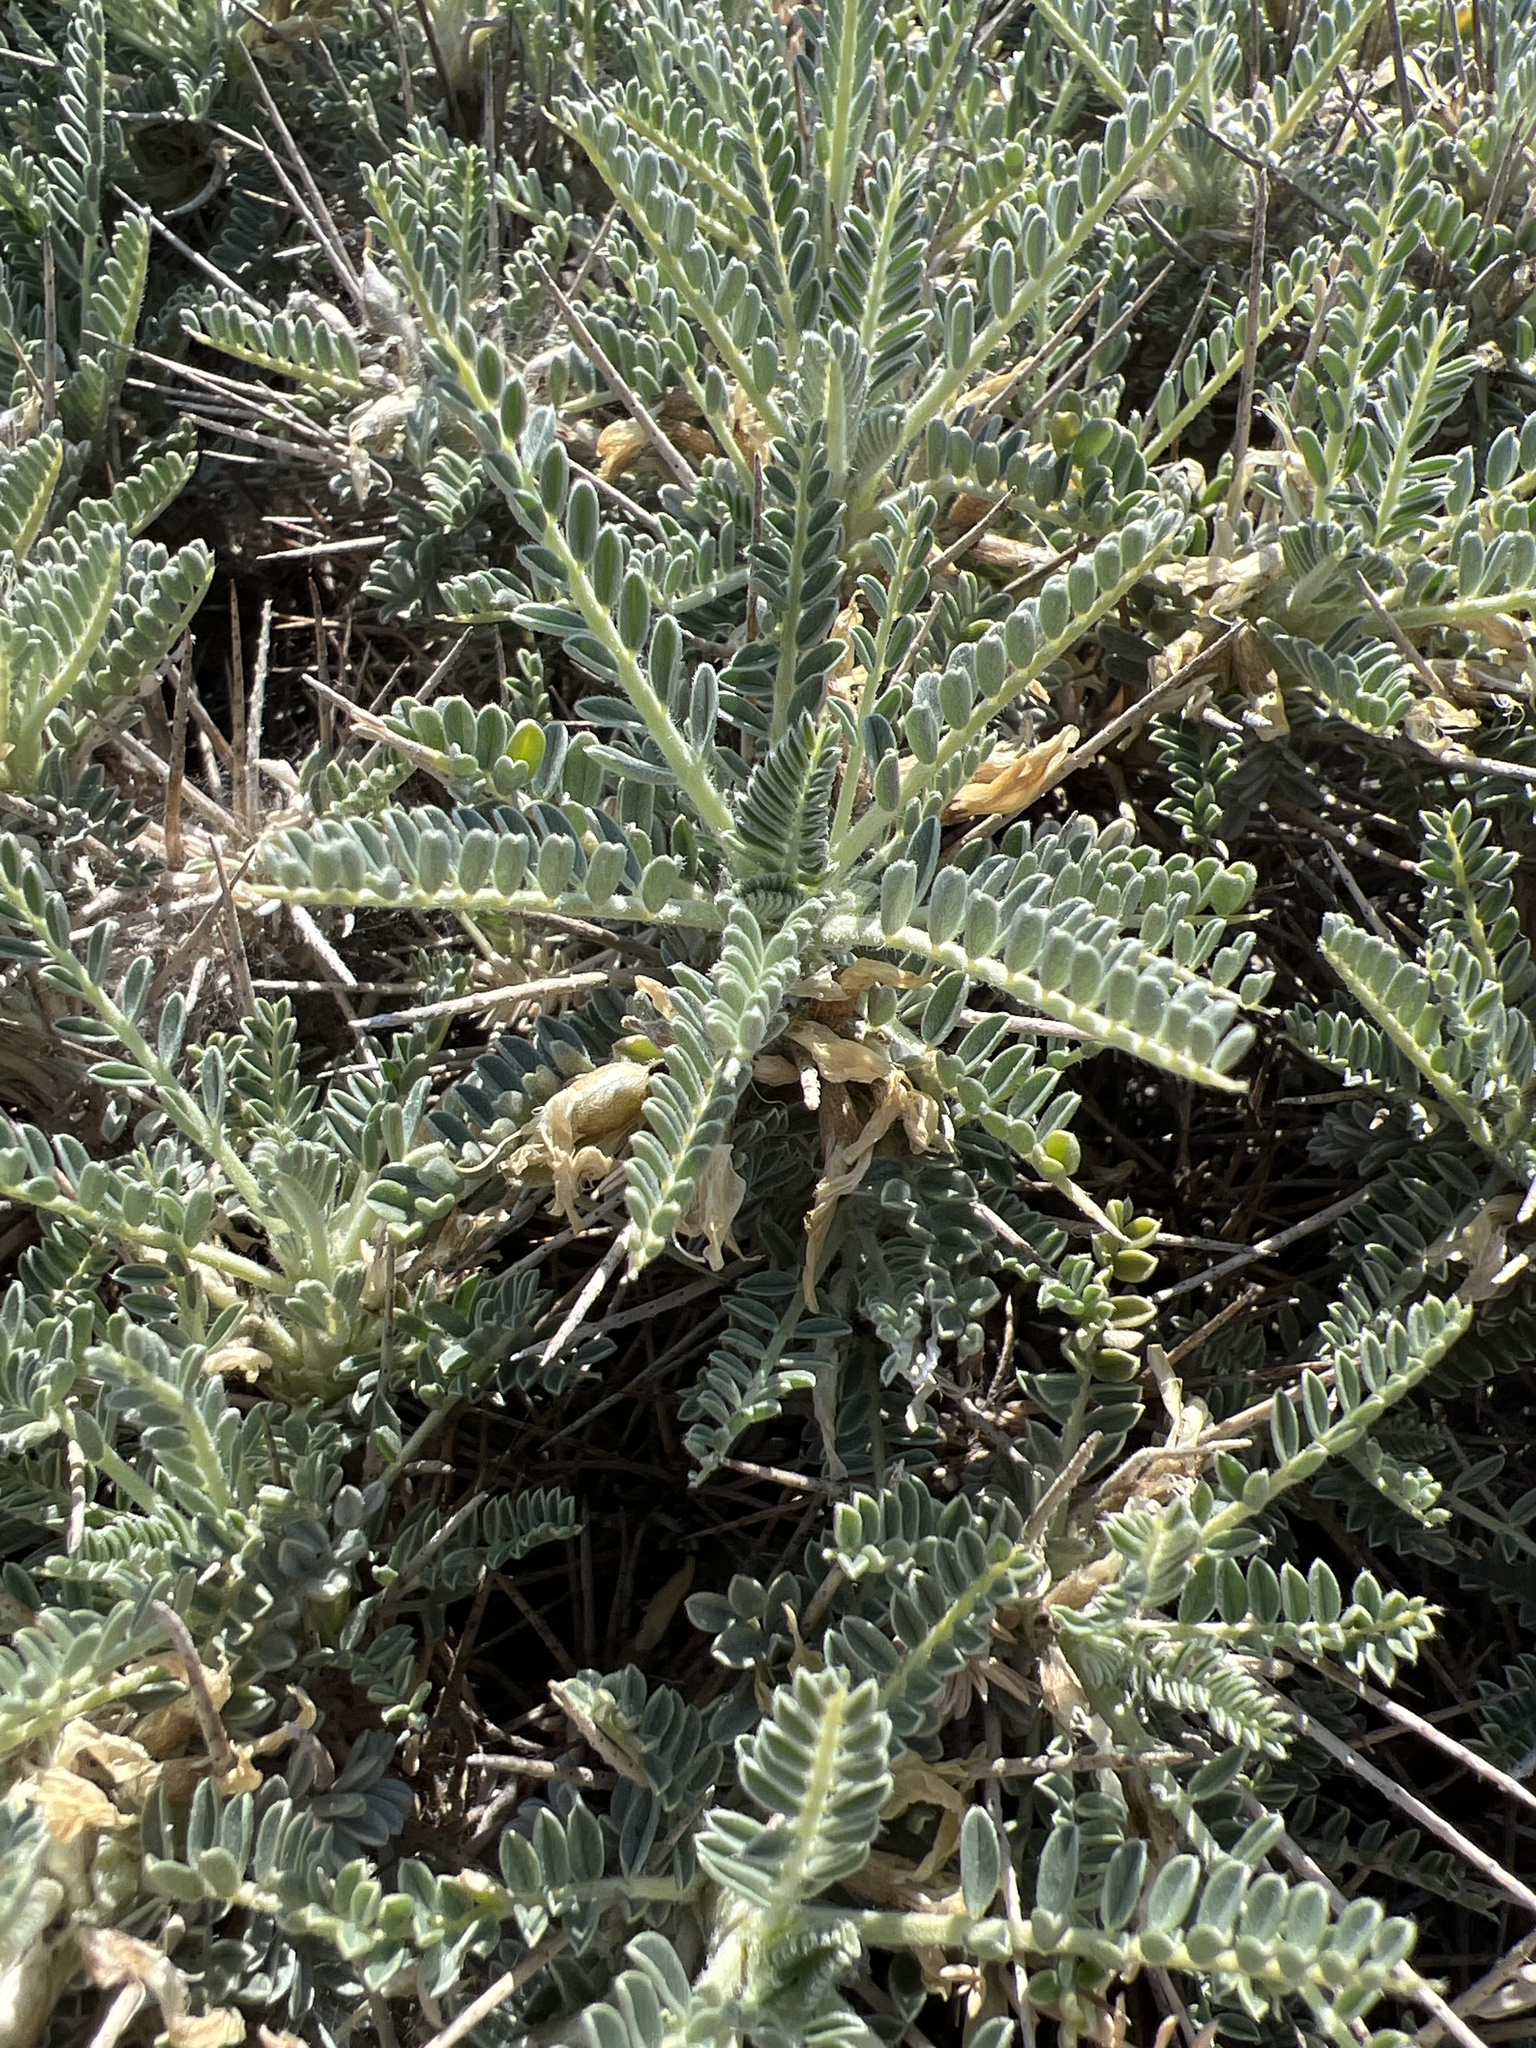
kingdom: Plantae
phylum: Tracheophyta
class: Magnoliopsida
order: Fabales
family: Fabaceae
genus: Astragalus
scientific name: Astragalus tragacantha
